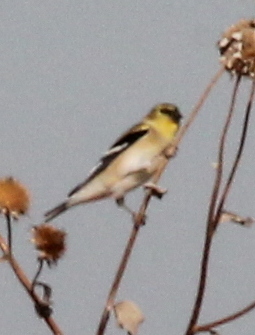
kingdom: Animalia
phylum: Chordata
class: Aves
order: Passeriformes
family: Fringillidae
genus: Spinus
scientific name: Spinus tristis
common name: American goldfinch
